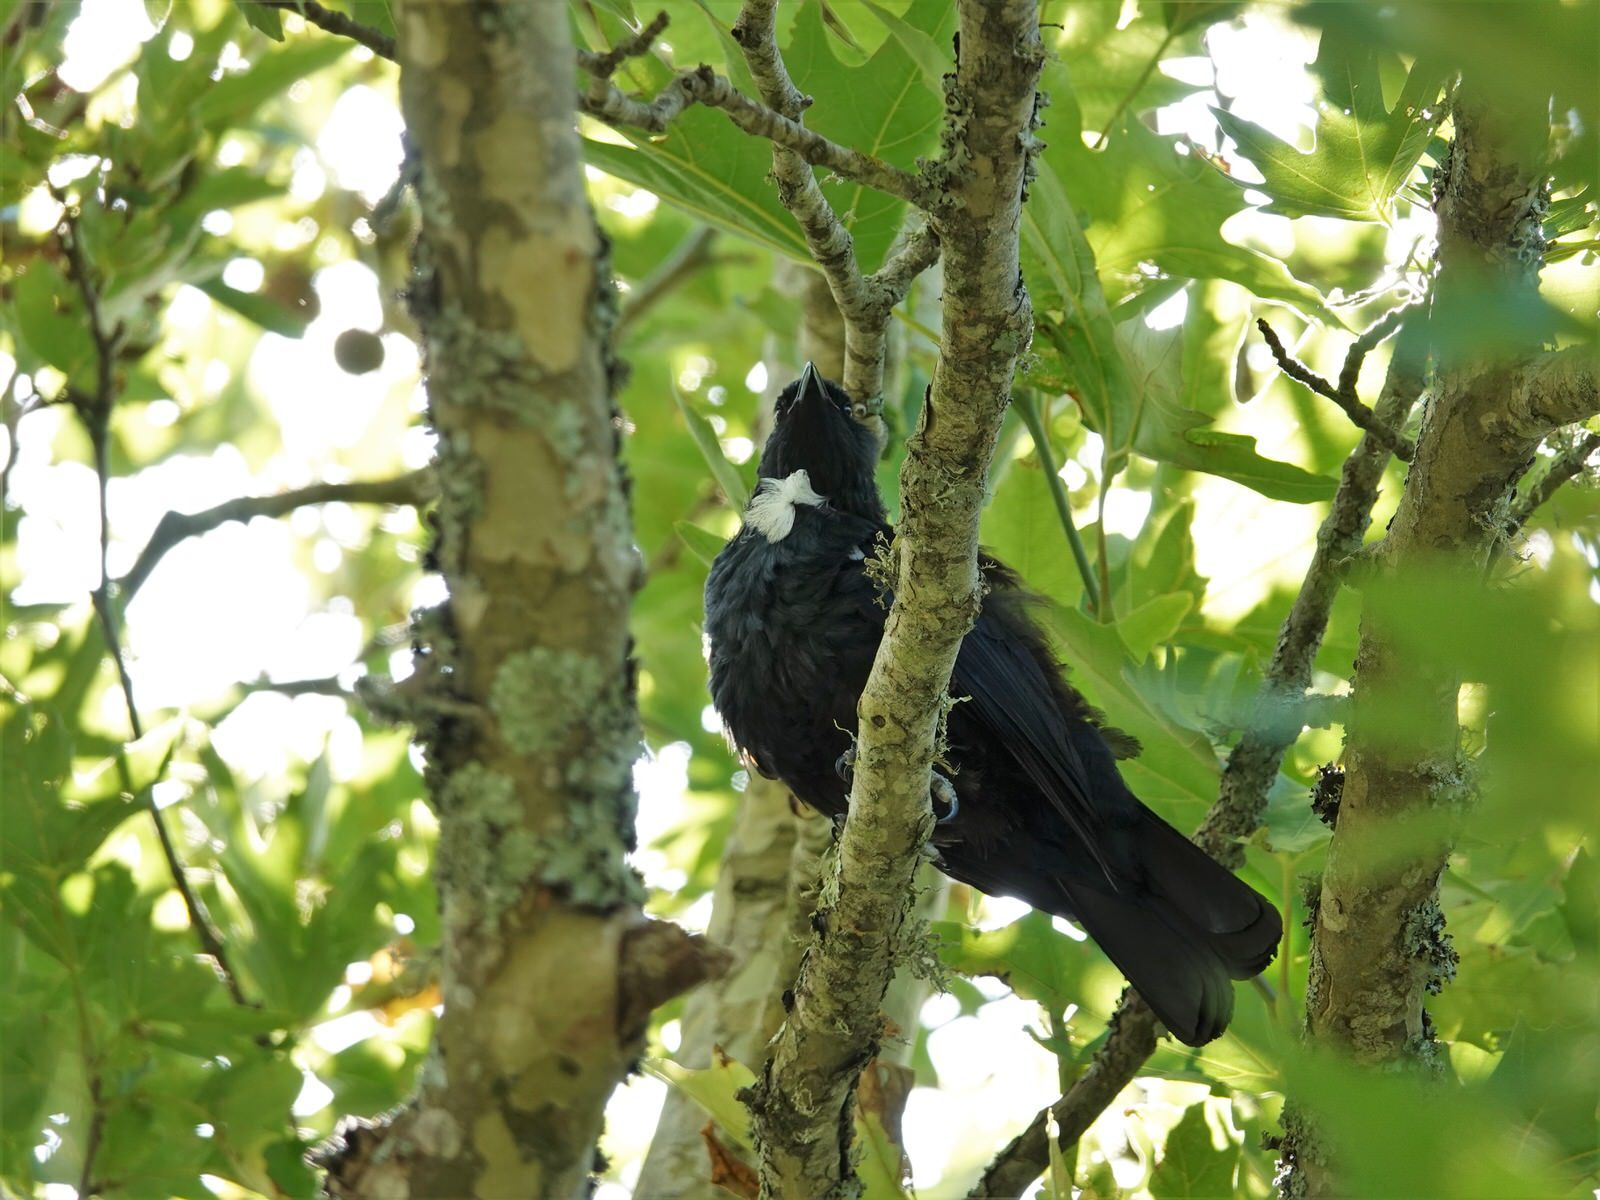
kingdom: Animalia
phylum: Chordata
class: Aves
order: Passeriformes
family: Meliphagidae
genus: Prosthemadera
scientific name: Prosthemadera novaeseelandiae
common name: Tui
